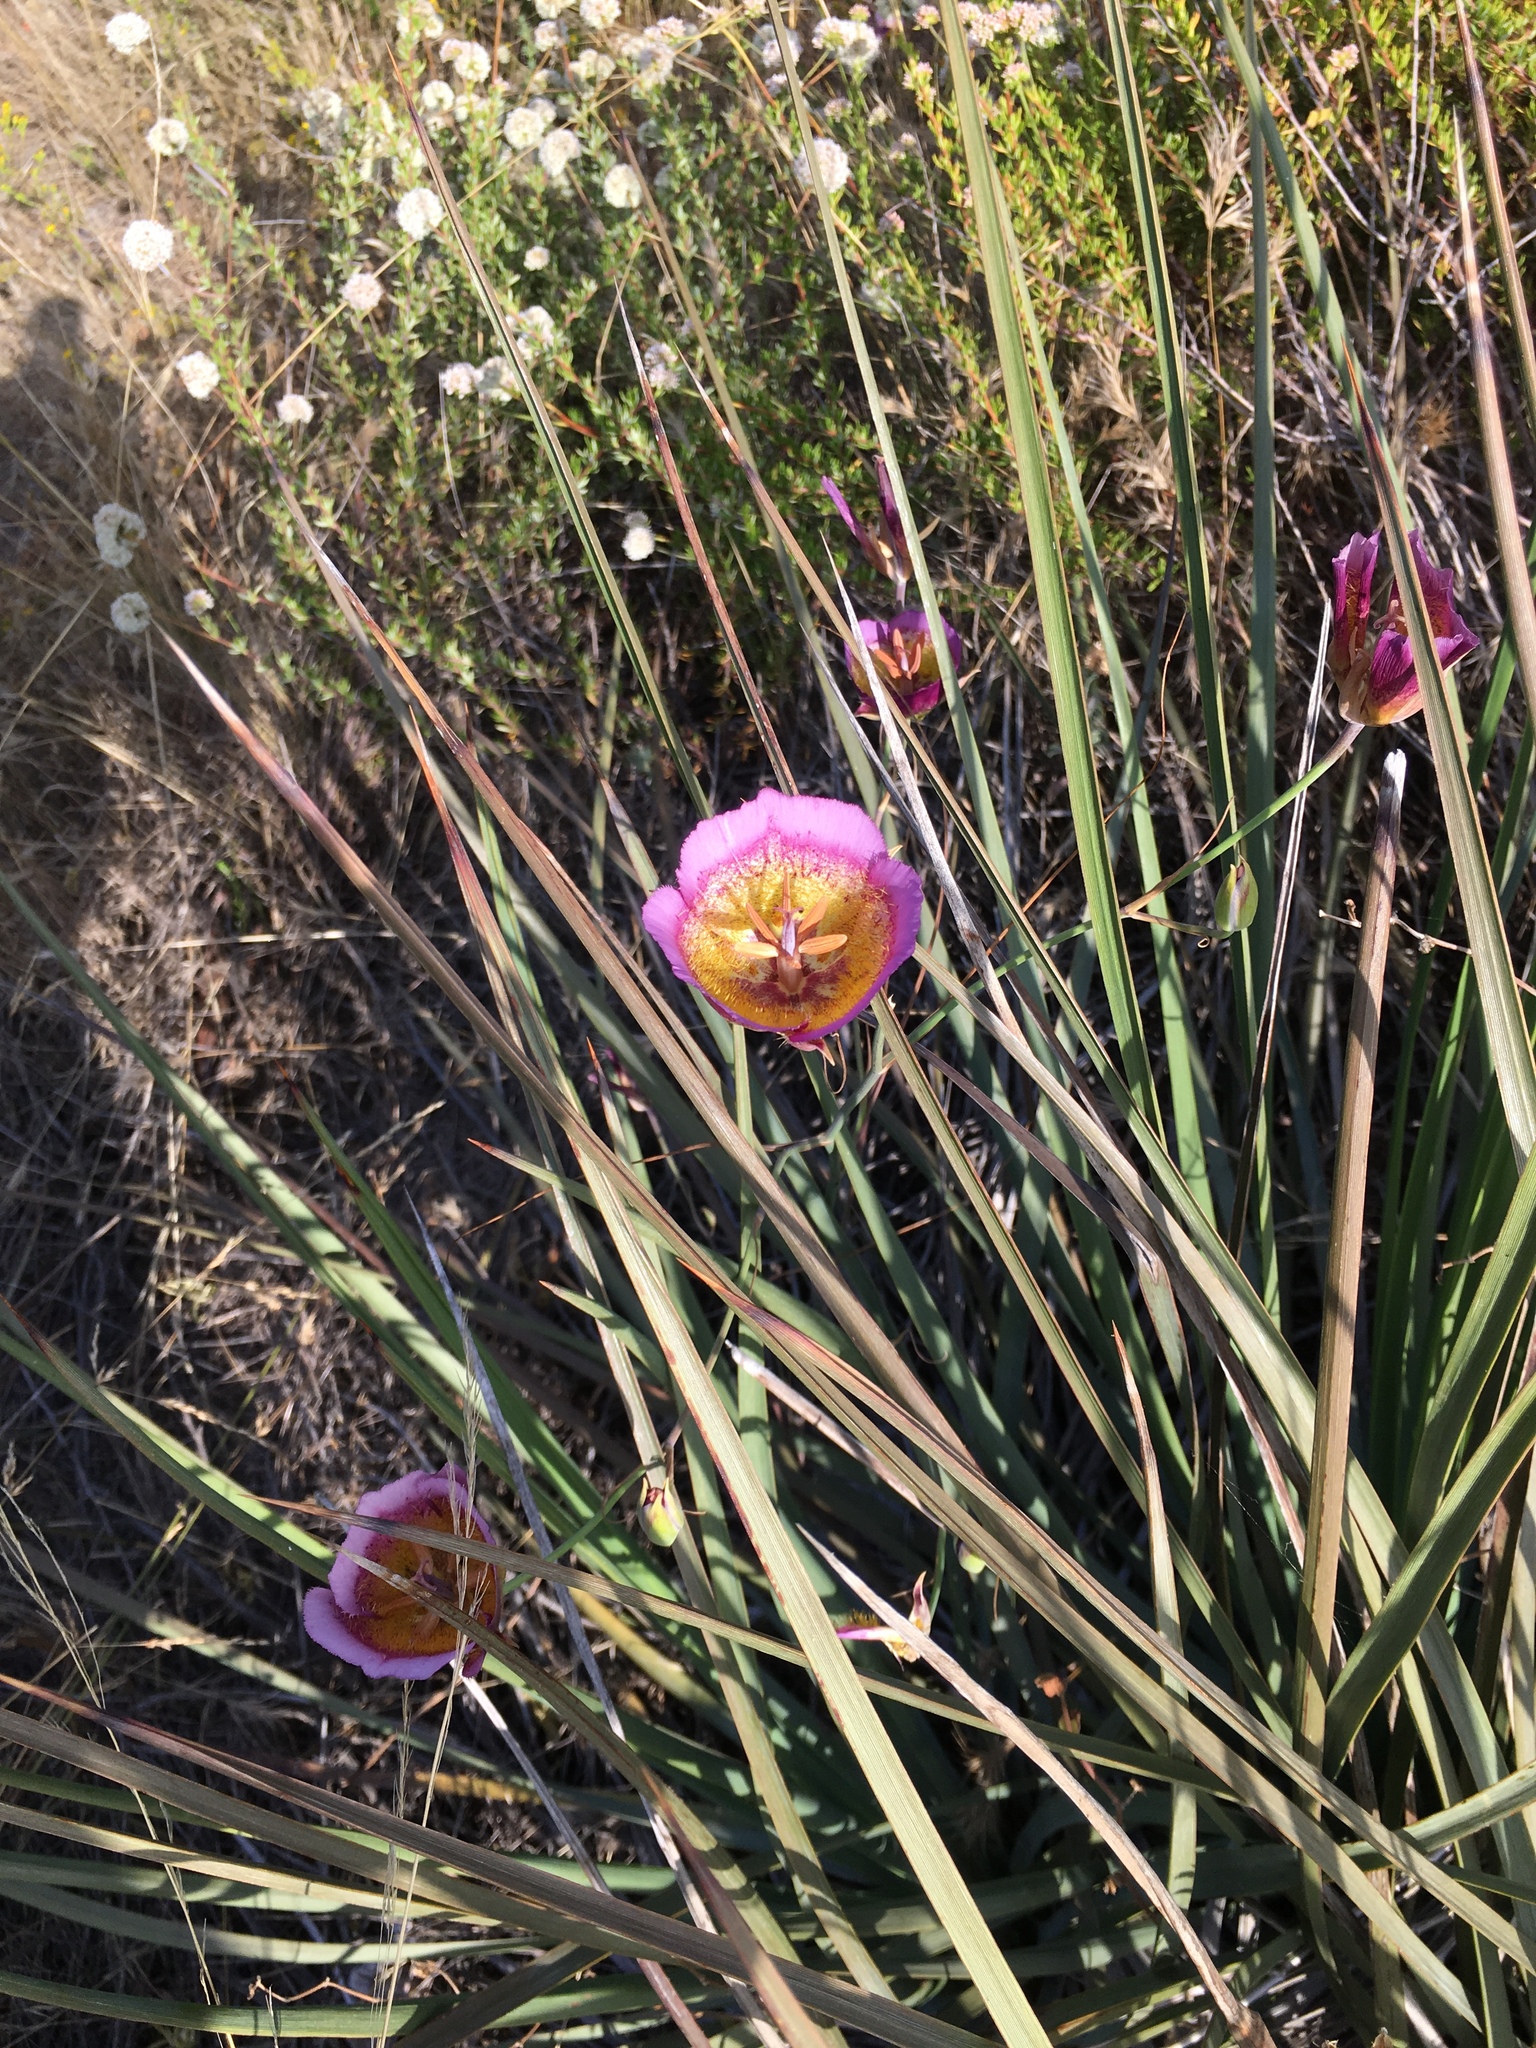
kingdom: Plantae
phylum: Tracheophyta
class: Liliopsida
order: Liliales
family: Liliaceae
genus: Calochortus
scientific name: Calochortus plummerae
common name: Plummer's mariposa-lily
